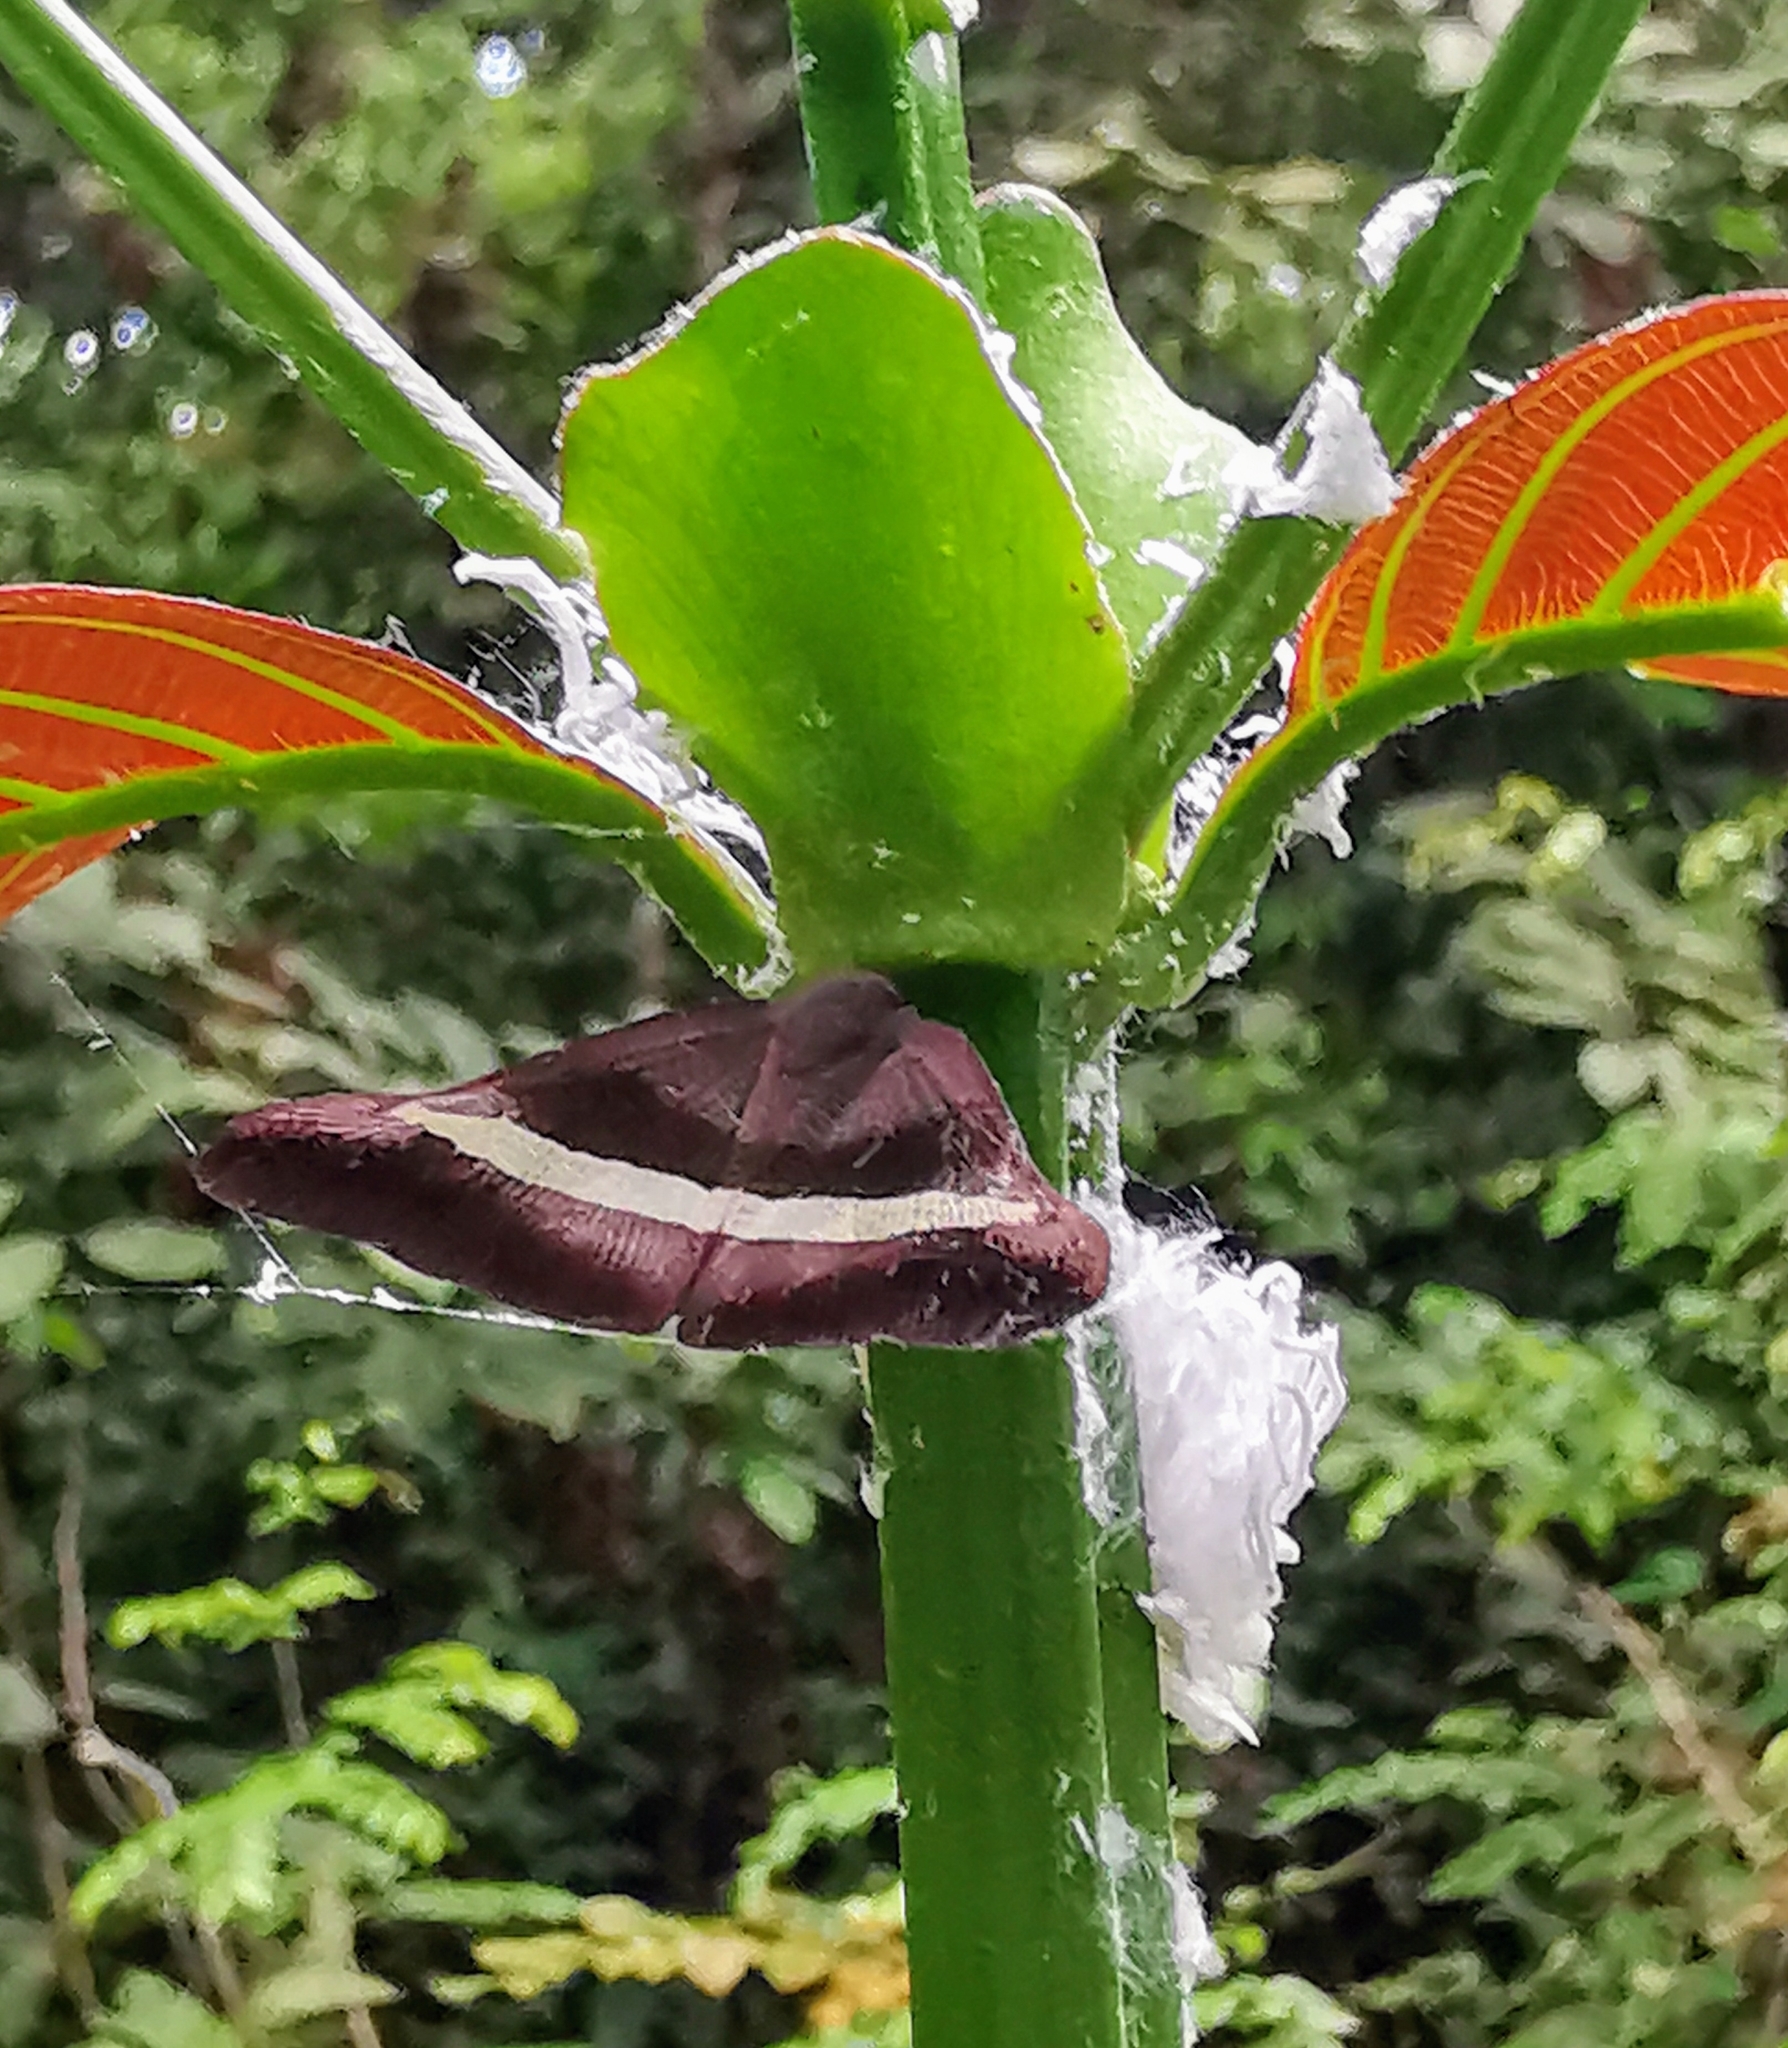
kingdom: Animalia
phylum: Arthropoda
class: Insecta
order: Hemiptera
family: Ricaniidae
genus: Pochazia
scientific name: Pochazia sinuata
